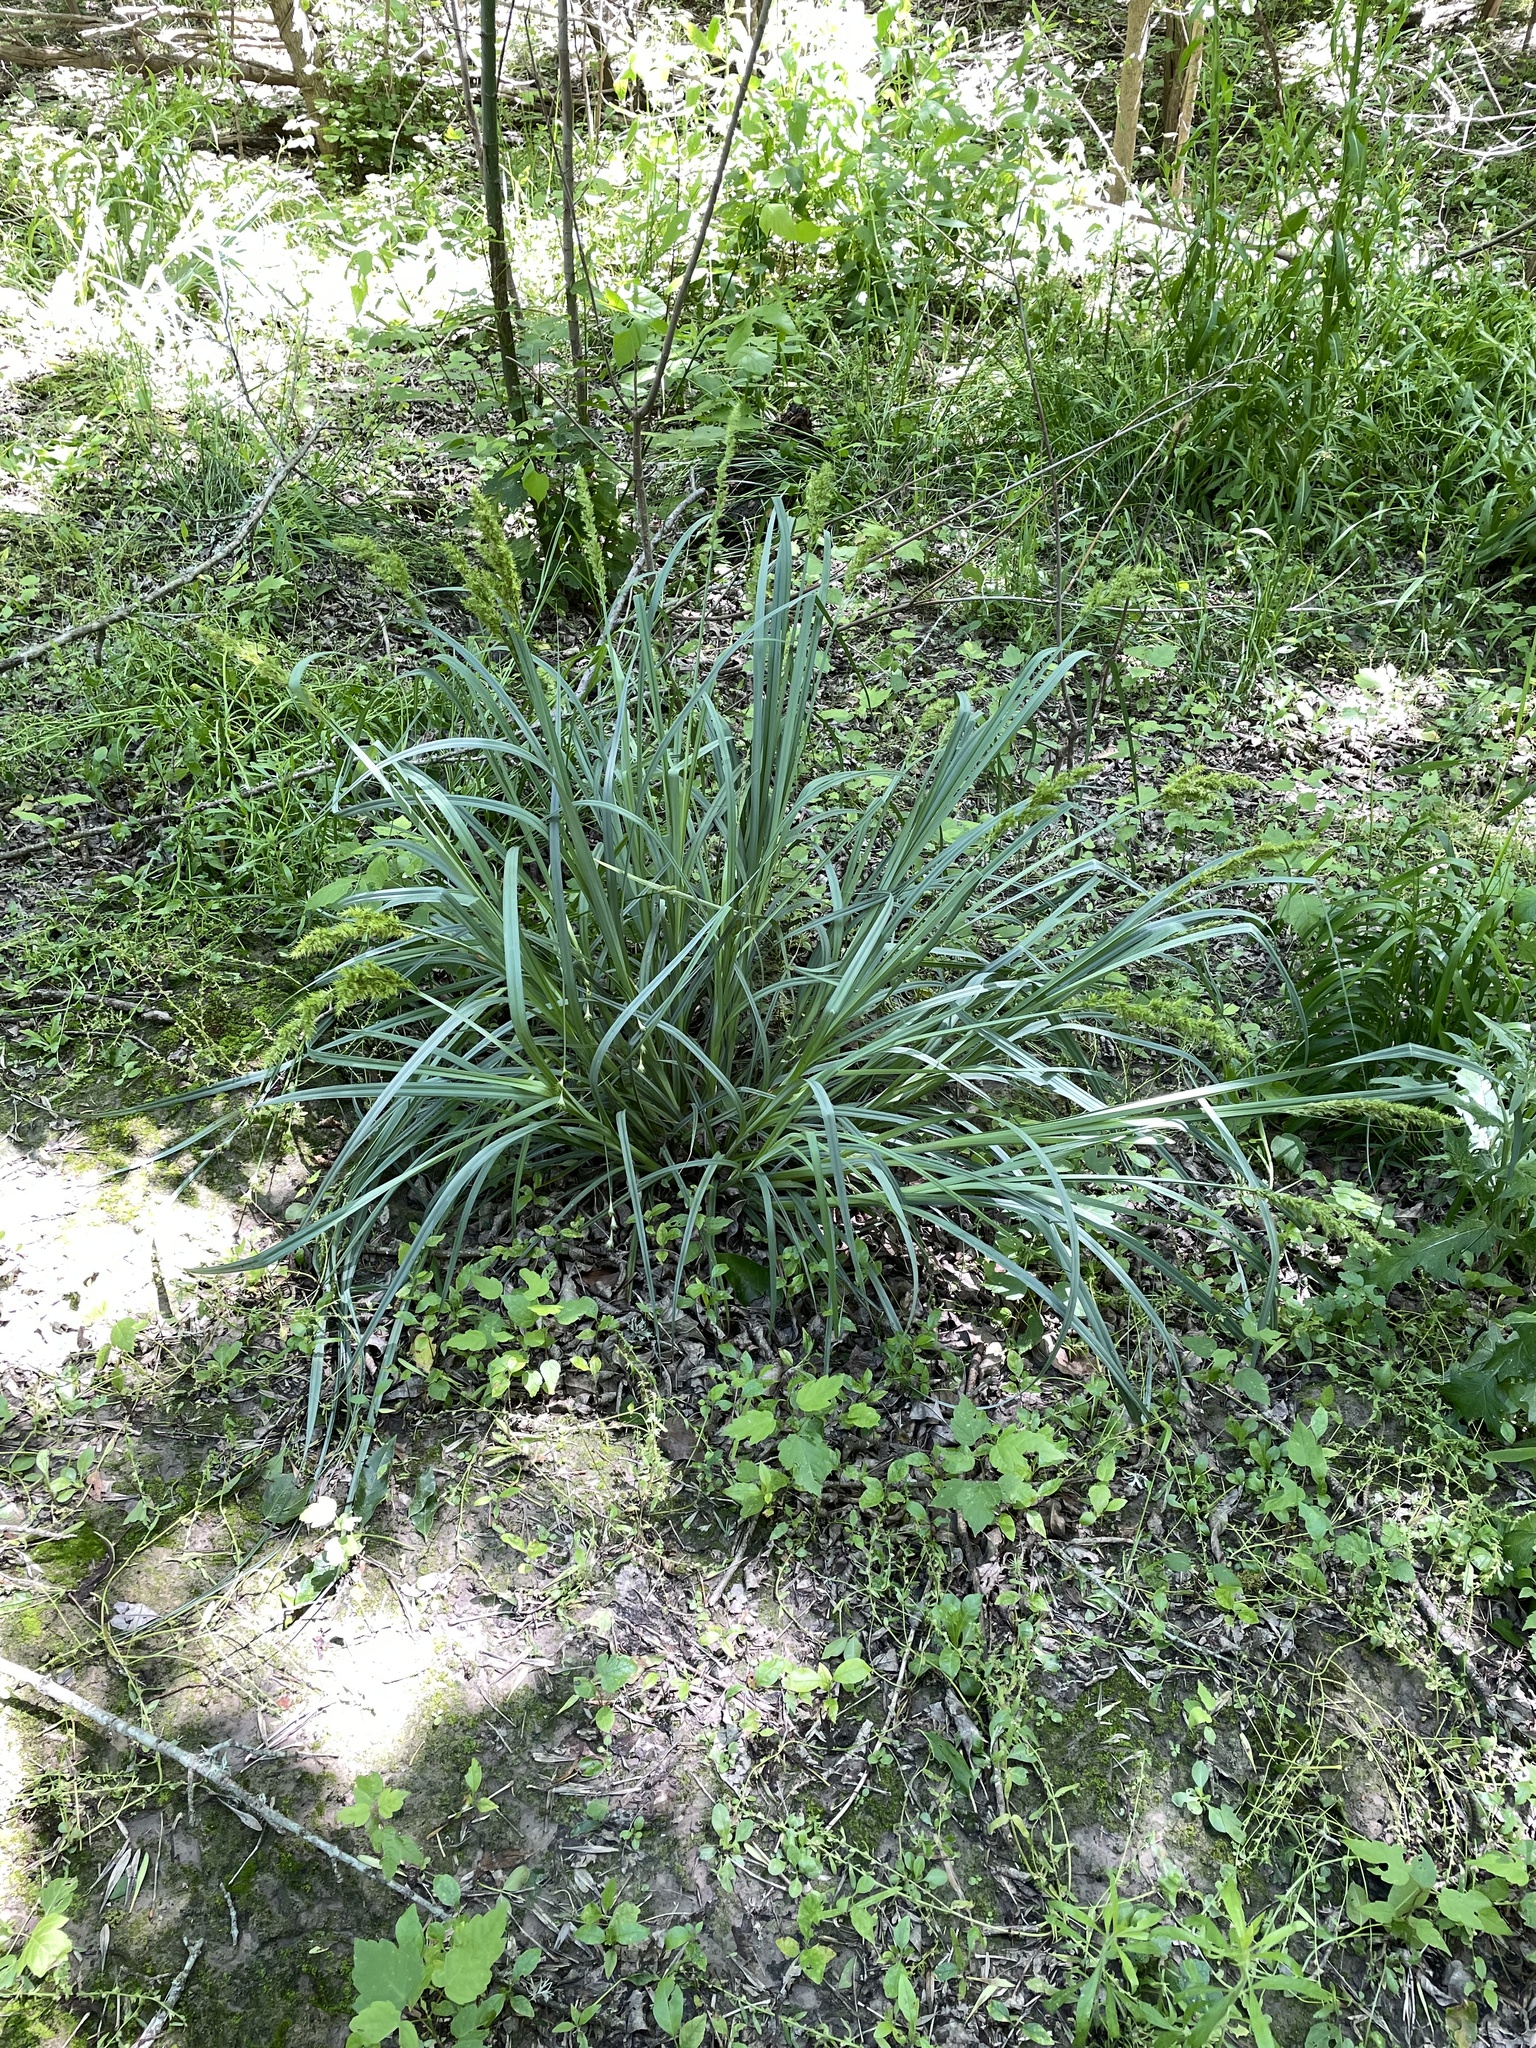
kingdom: Plantae
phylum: Tracheophyta
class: Liliopsida
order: Poales
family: Cyperaceae
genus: Carex
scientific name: Carex crus-corvi
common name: Crow-spur sedge
